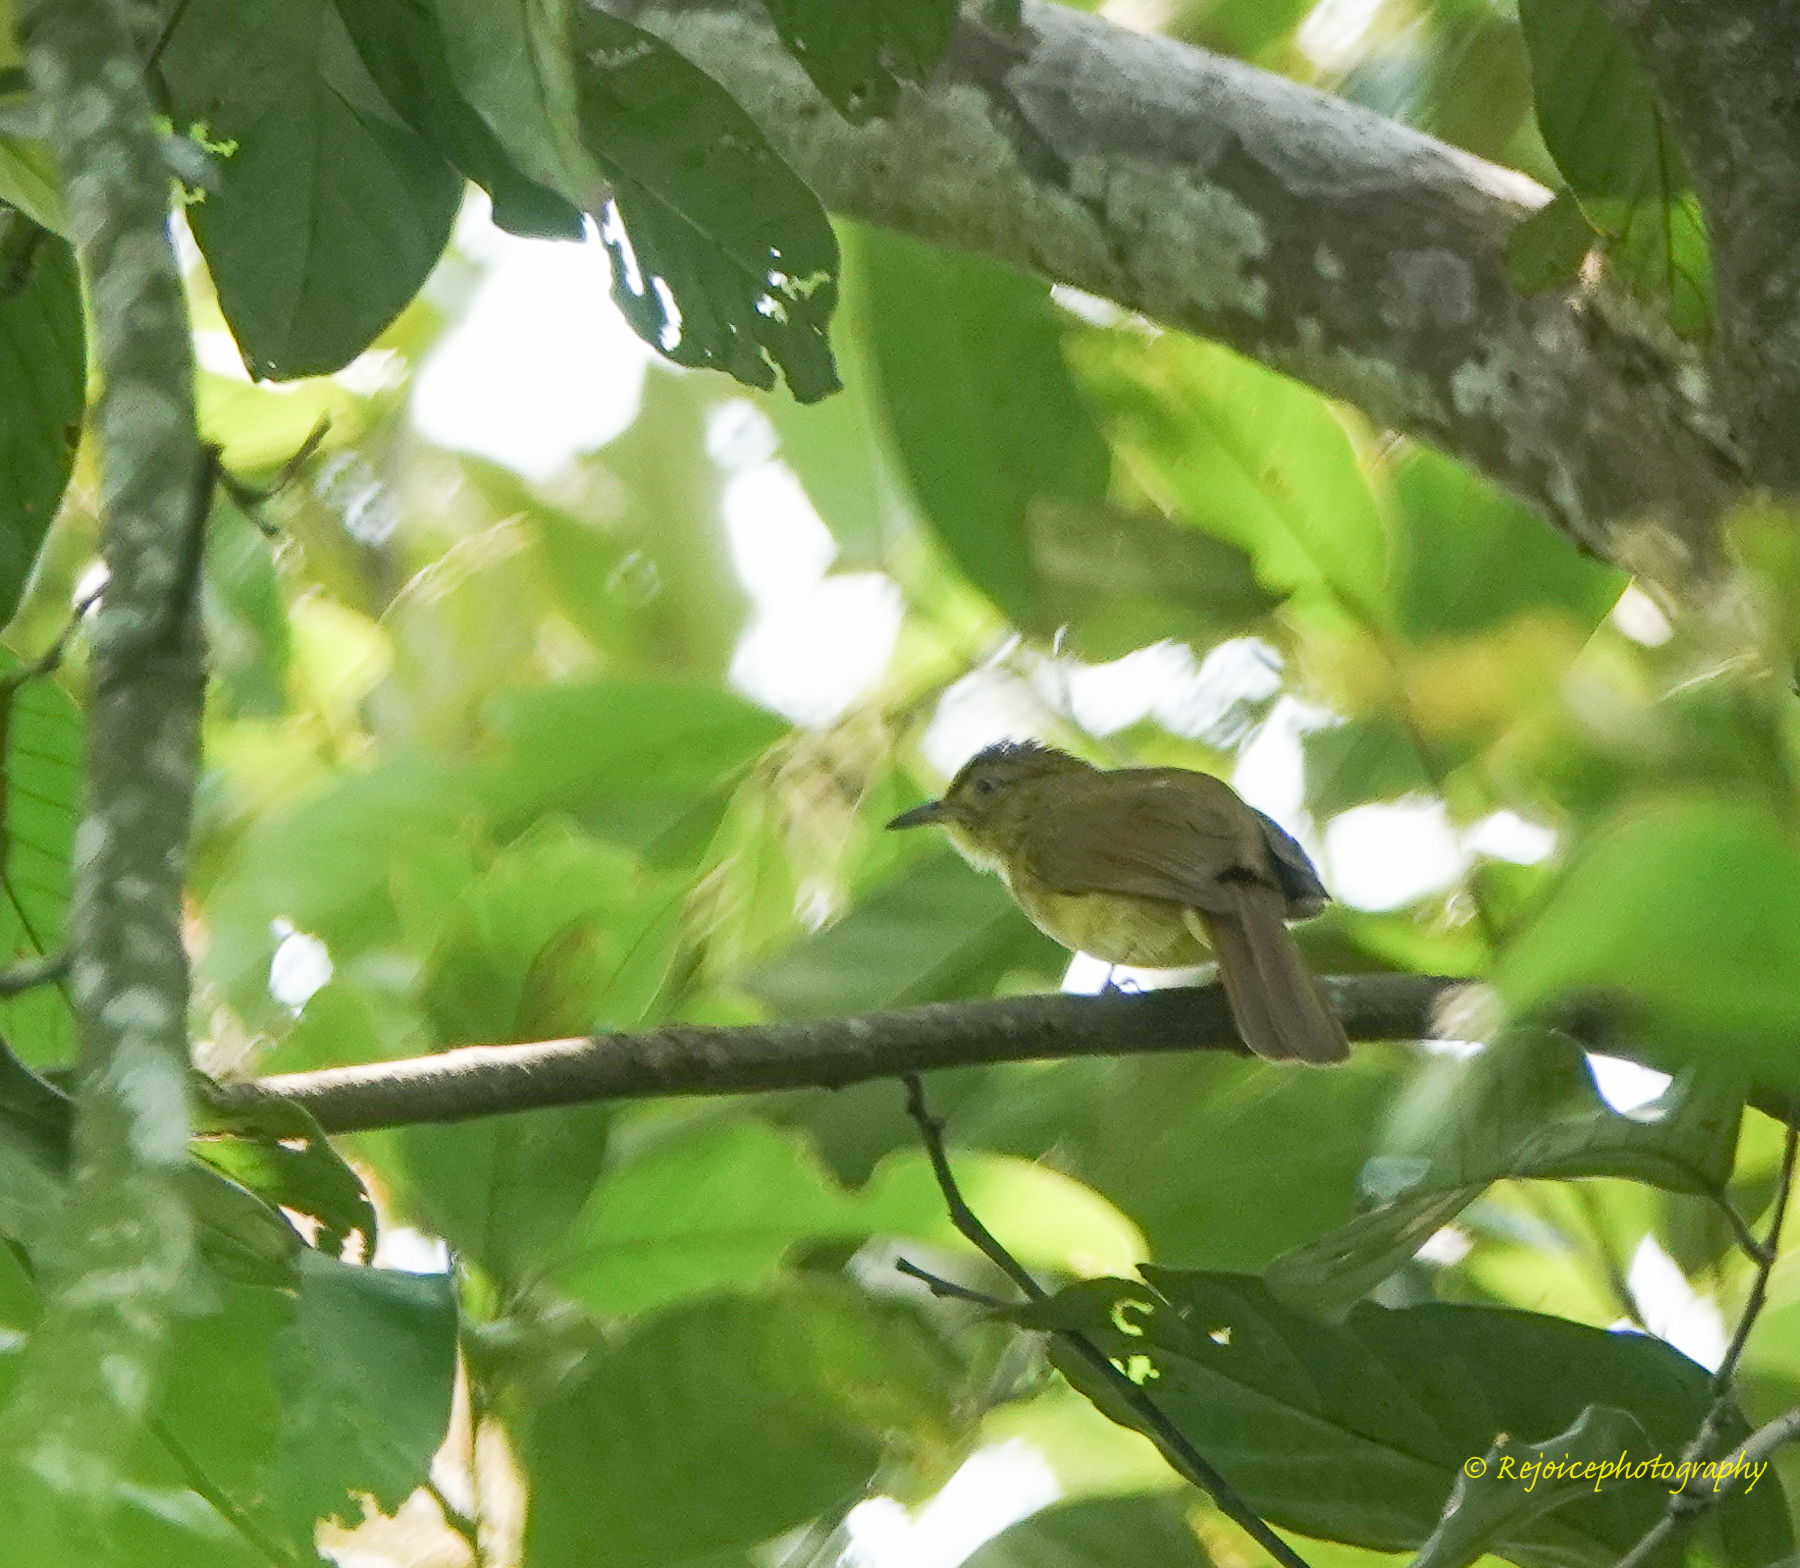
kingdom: Animalia
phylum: Chordata
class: Aves
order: Passeriformes
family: Pycnonotidae
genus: Iole
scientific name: Iole virescens
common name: Olive bulbul
